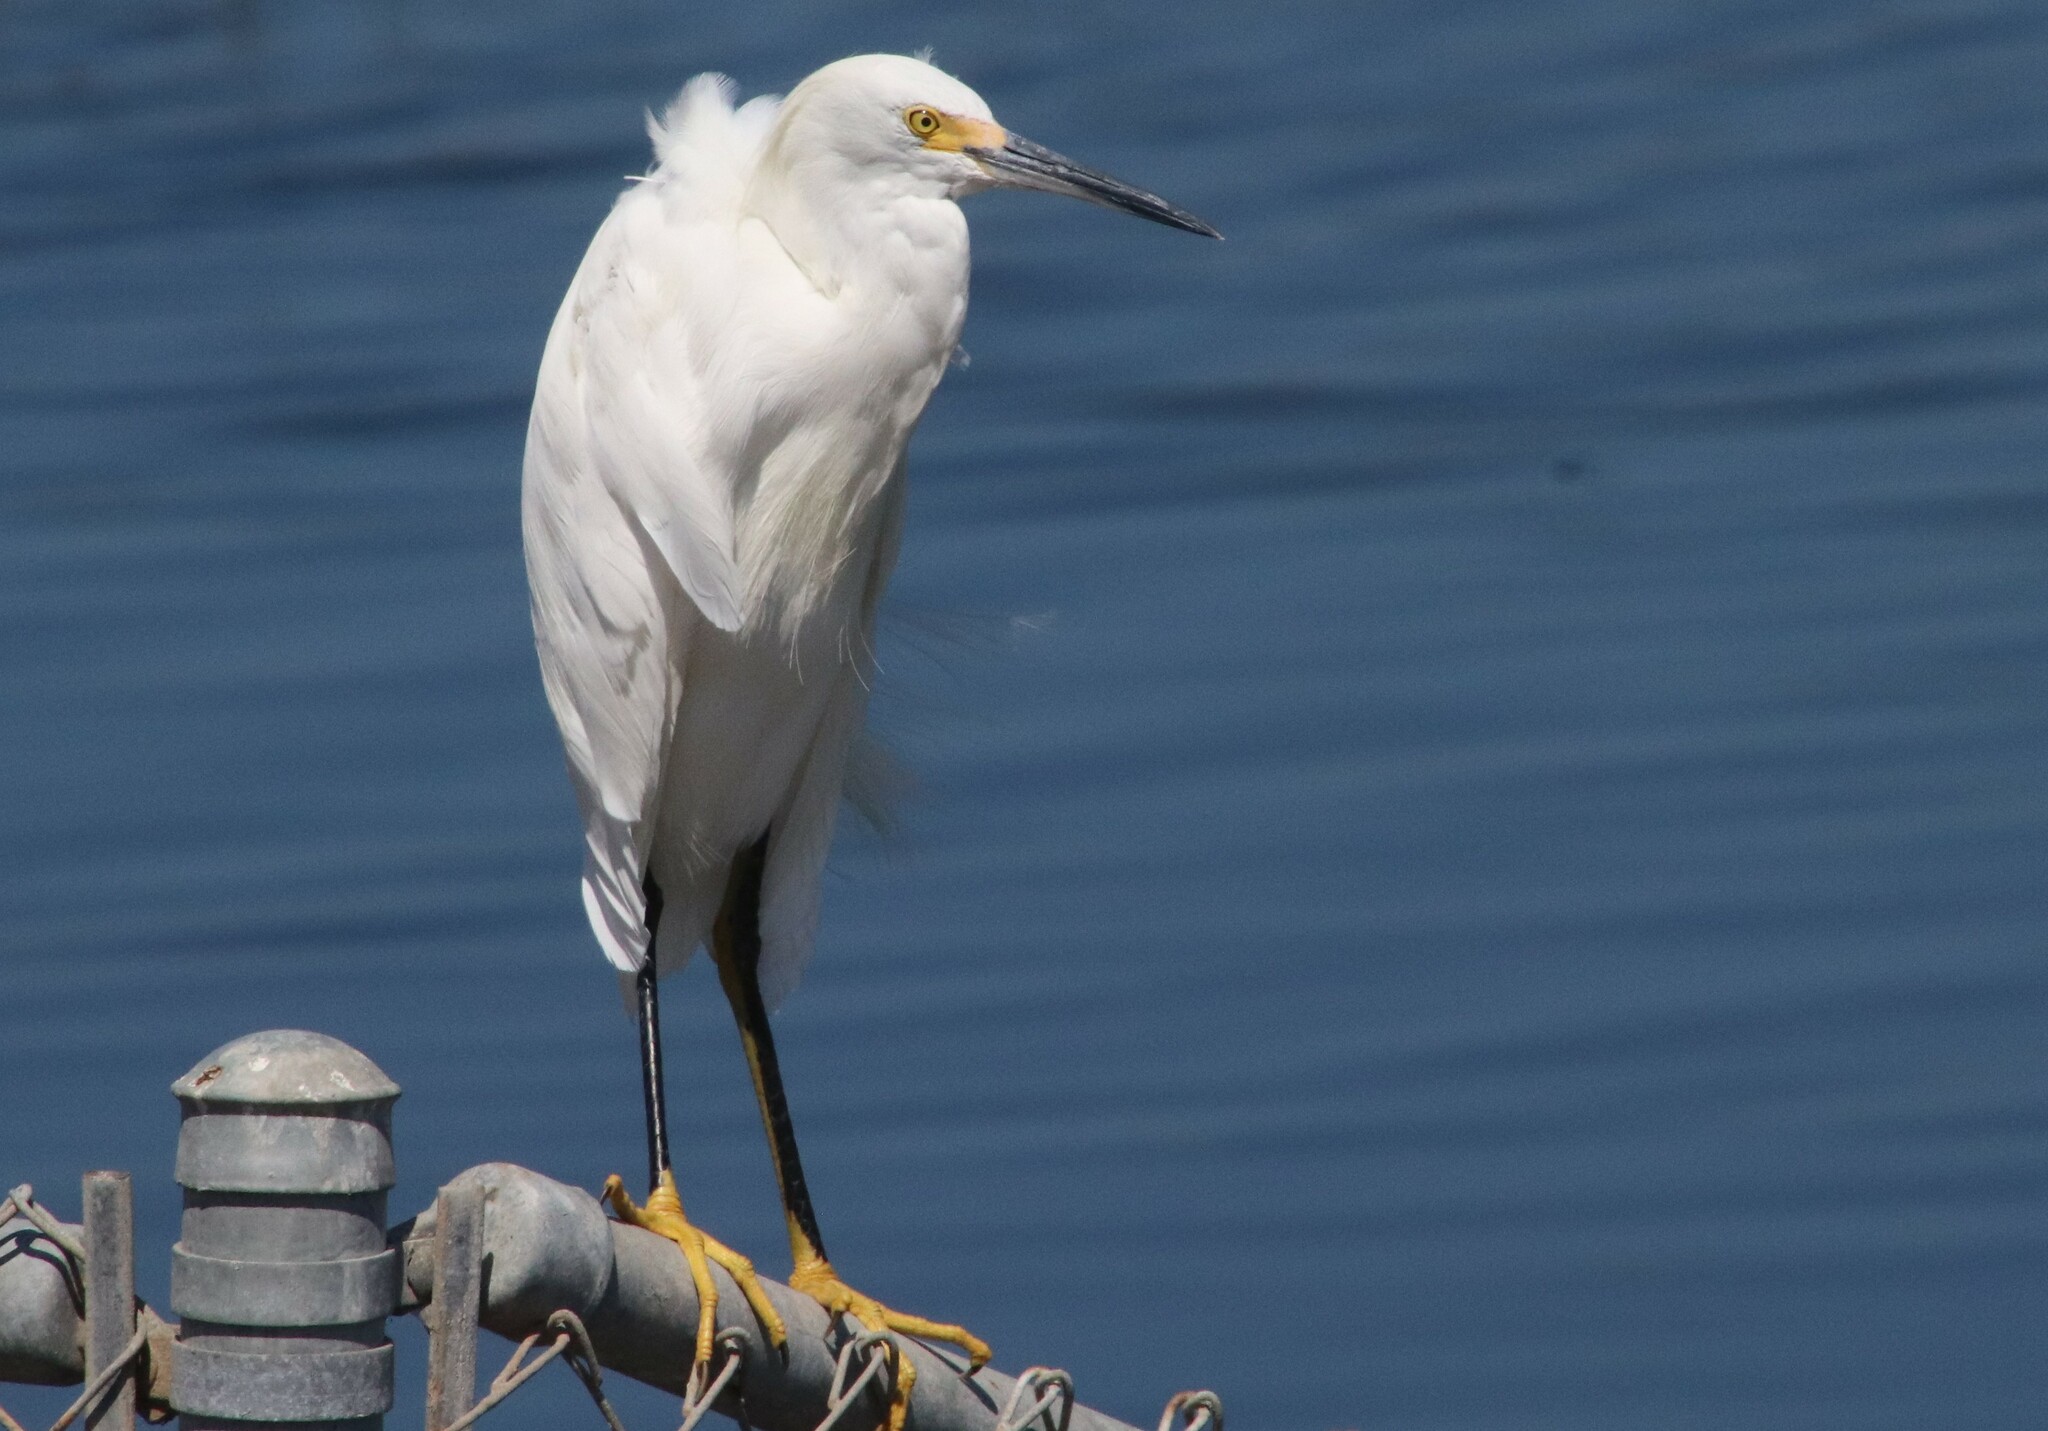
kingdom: Animalia
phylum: Chordata
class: Aves
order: Pelecaniformes
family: Ardeidae
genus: Egretta
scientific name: Egretta thula
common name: Snowy egret
